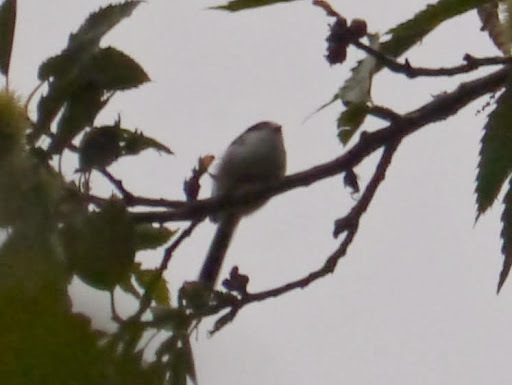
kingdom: Animalia
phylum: Chordata
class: Aves
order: Passeriformes
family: Aegithalidae
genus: Aegithalos
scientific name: Aegithalos caudatus
